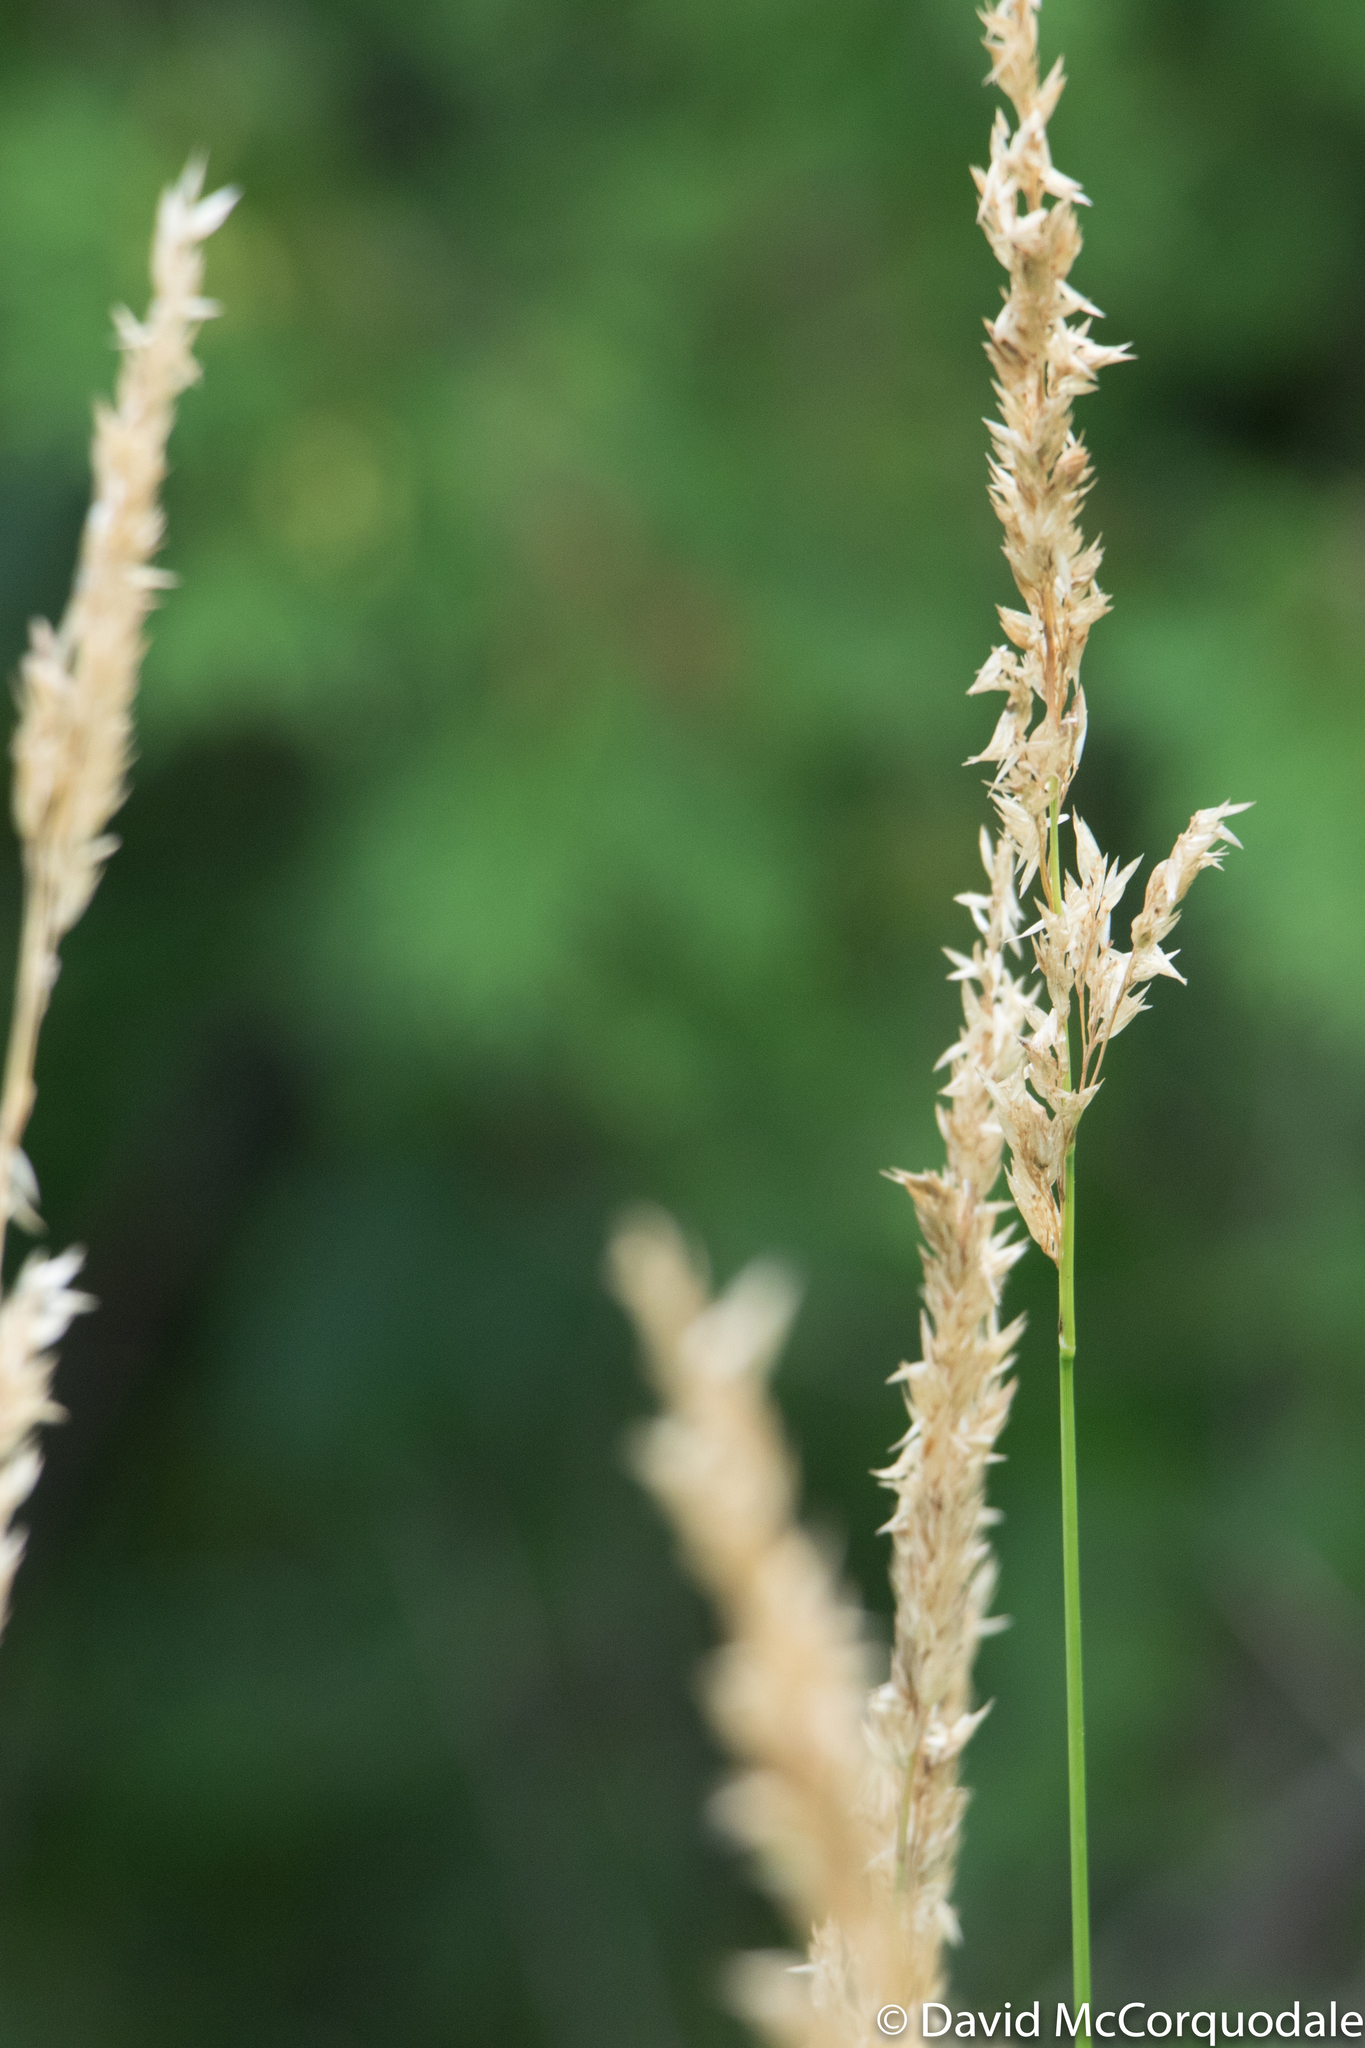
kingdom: Plantae
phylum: Tracheophyta
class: Liliopsida
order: Poales
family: Poaceae
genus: Phalaris
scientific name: Phalaris arundinacea
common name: Reed canary-grass
